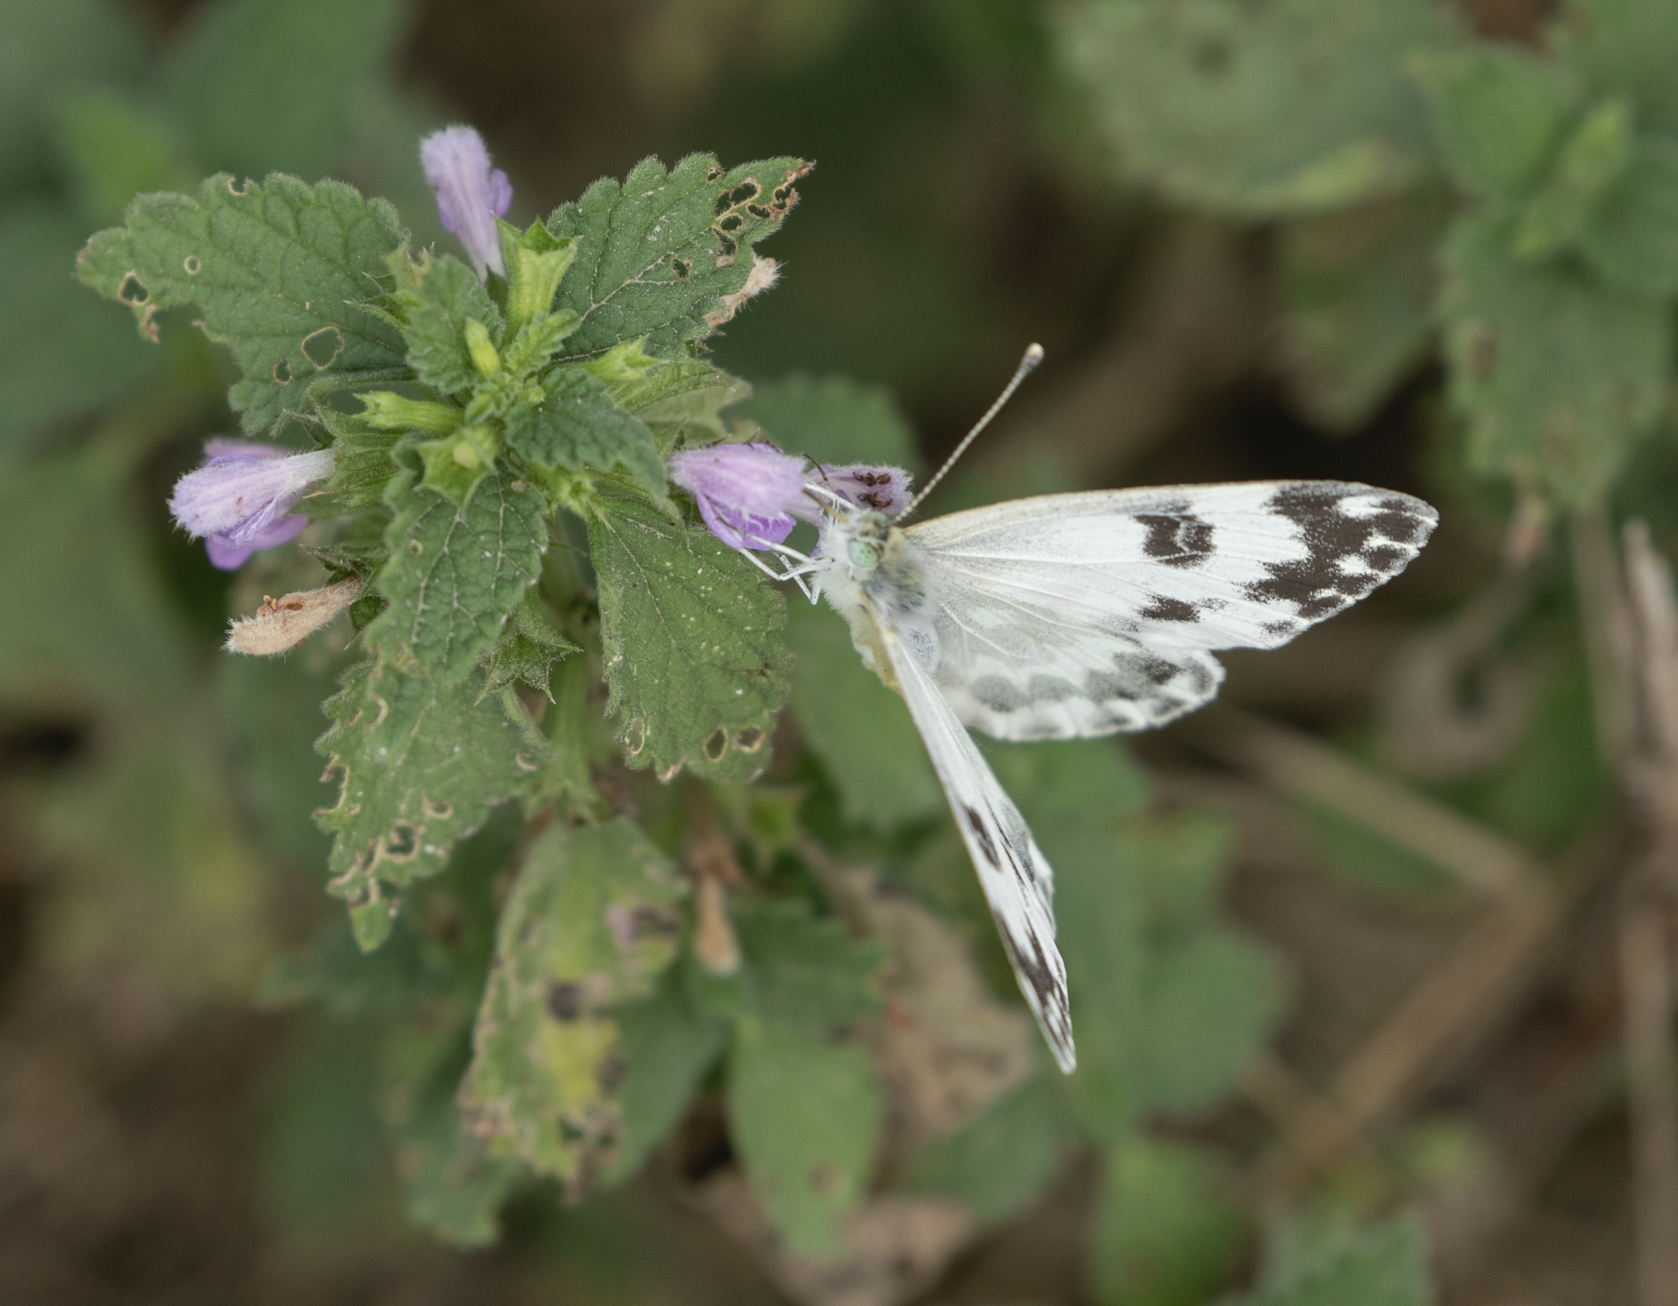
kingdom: Animalia
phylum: Arthropoda
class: Insecta
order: Lepidoptera
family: Pieridae
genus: Pontia
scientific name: Pontia edusa
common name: Eastern bath white
